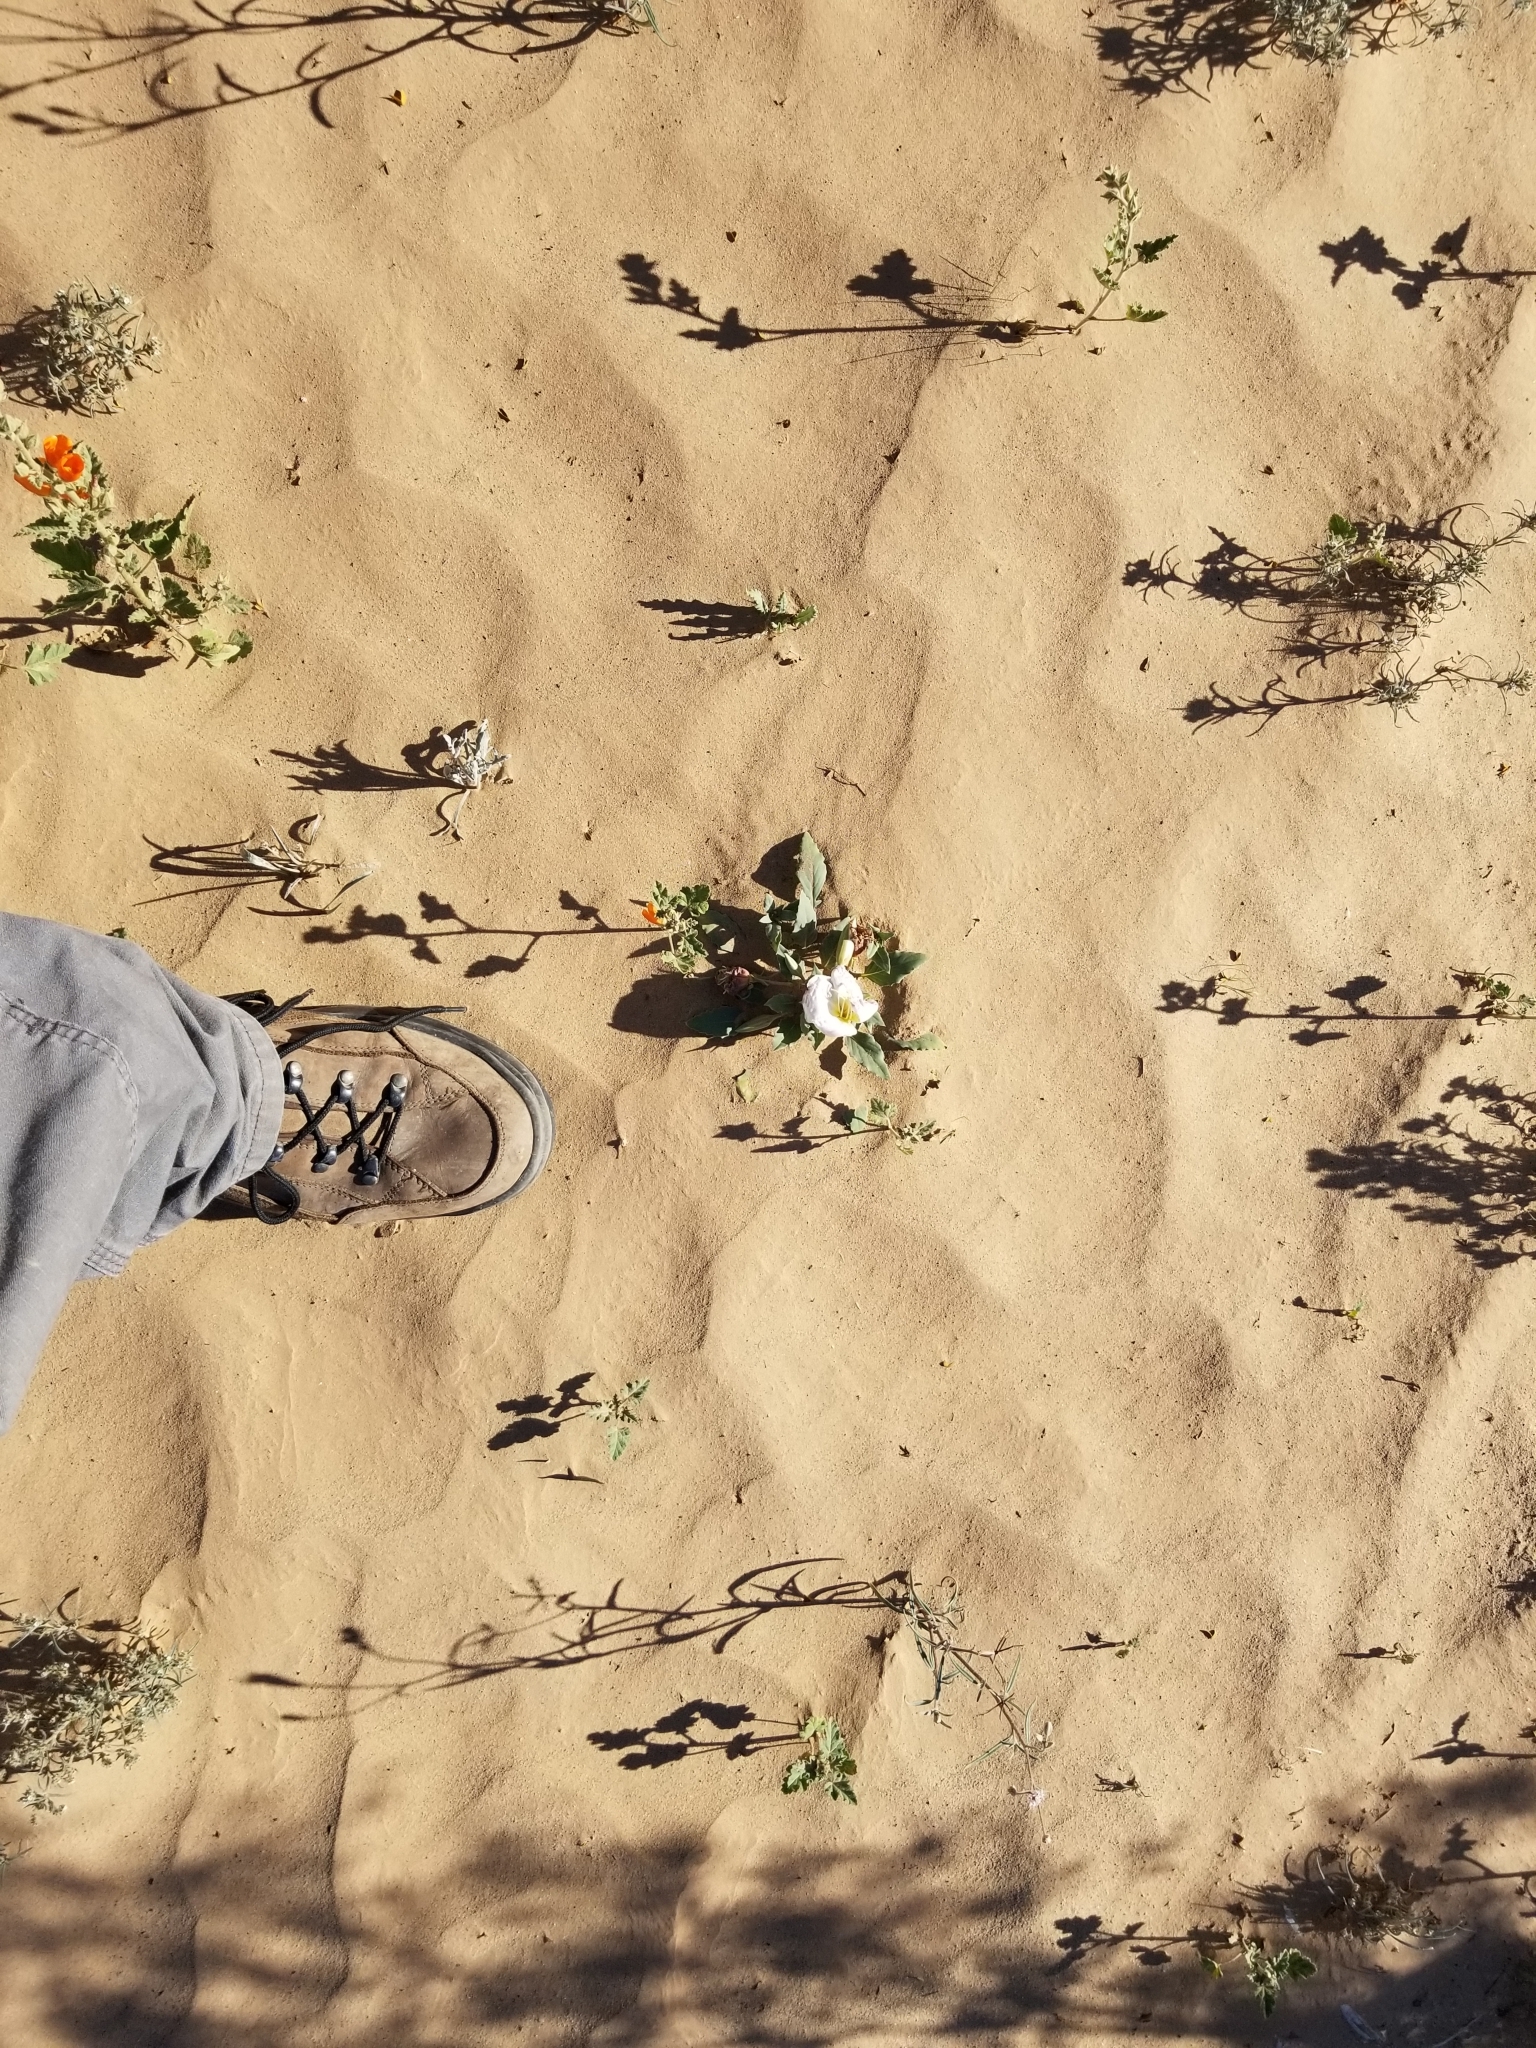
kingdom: Plantae
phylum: Tracheophyta
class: Magnoliopsida
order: Myrtales
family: Onagraceae
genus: Oenothera
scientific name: Oenothera deltoides
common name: Basket evening-primrose
